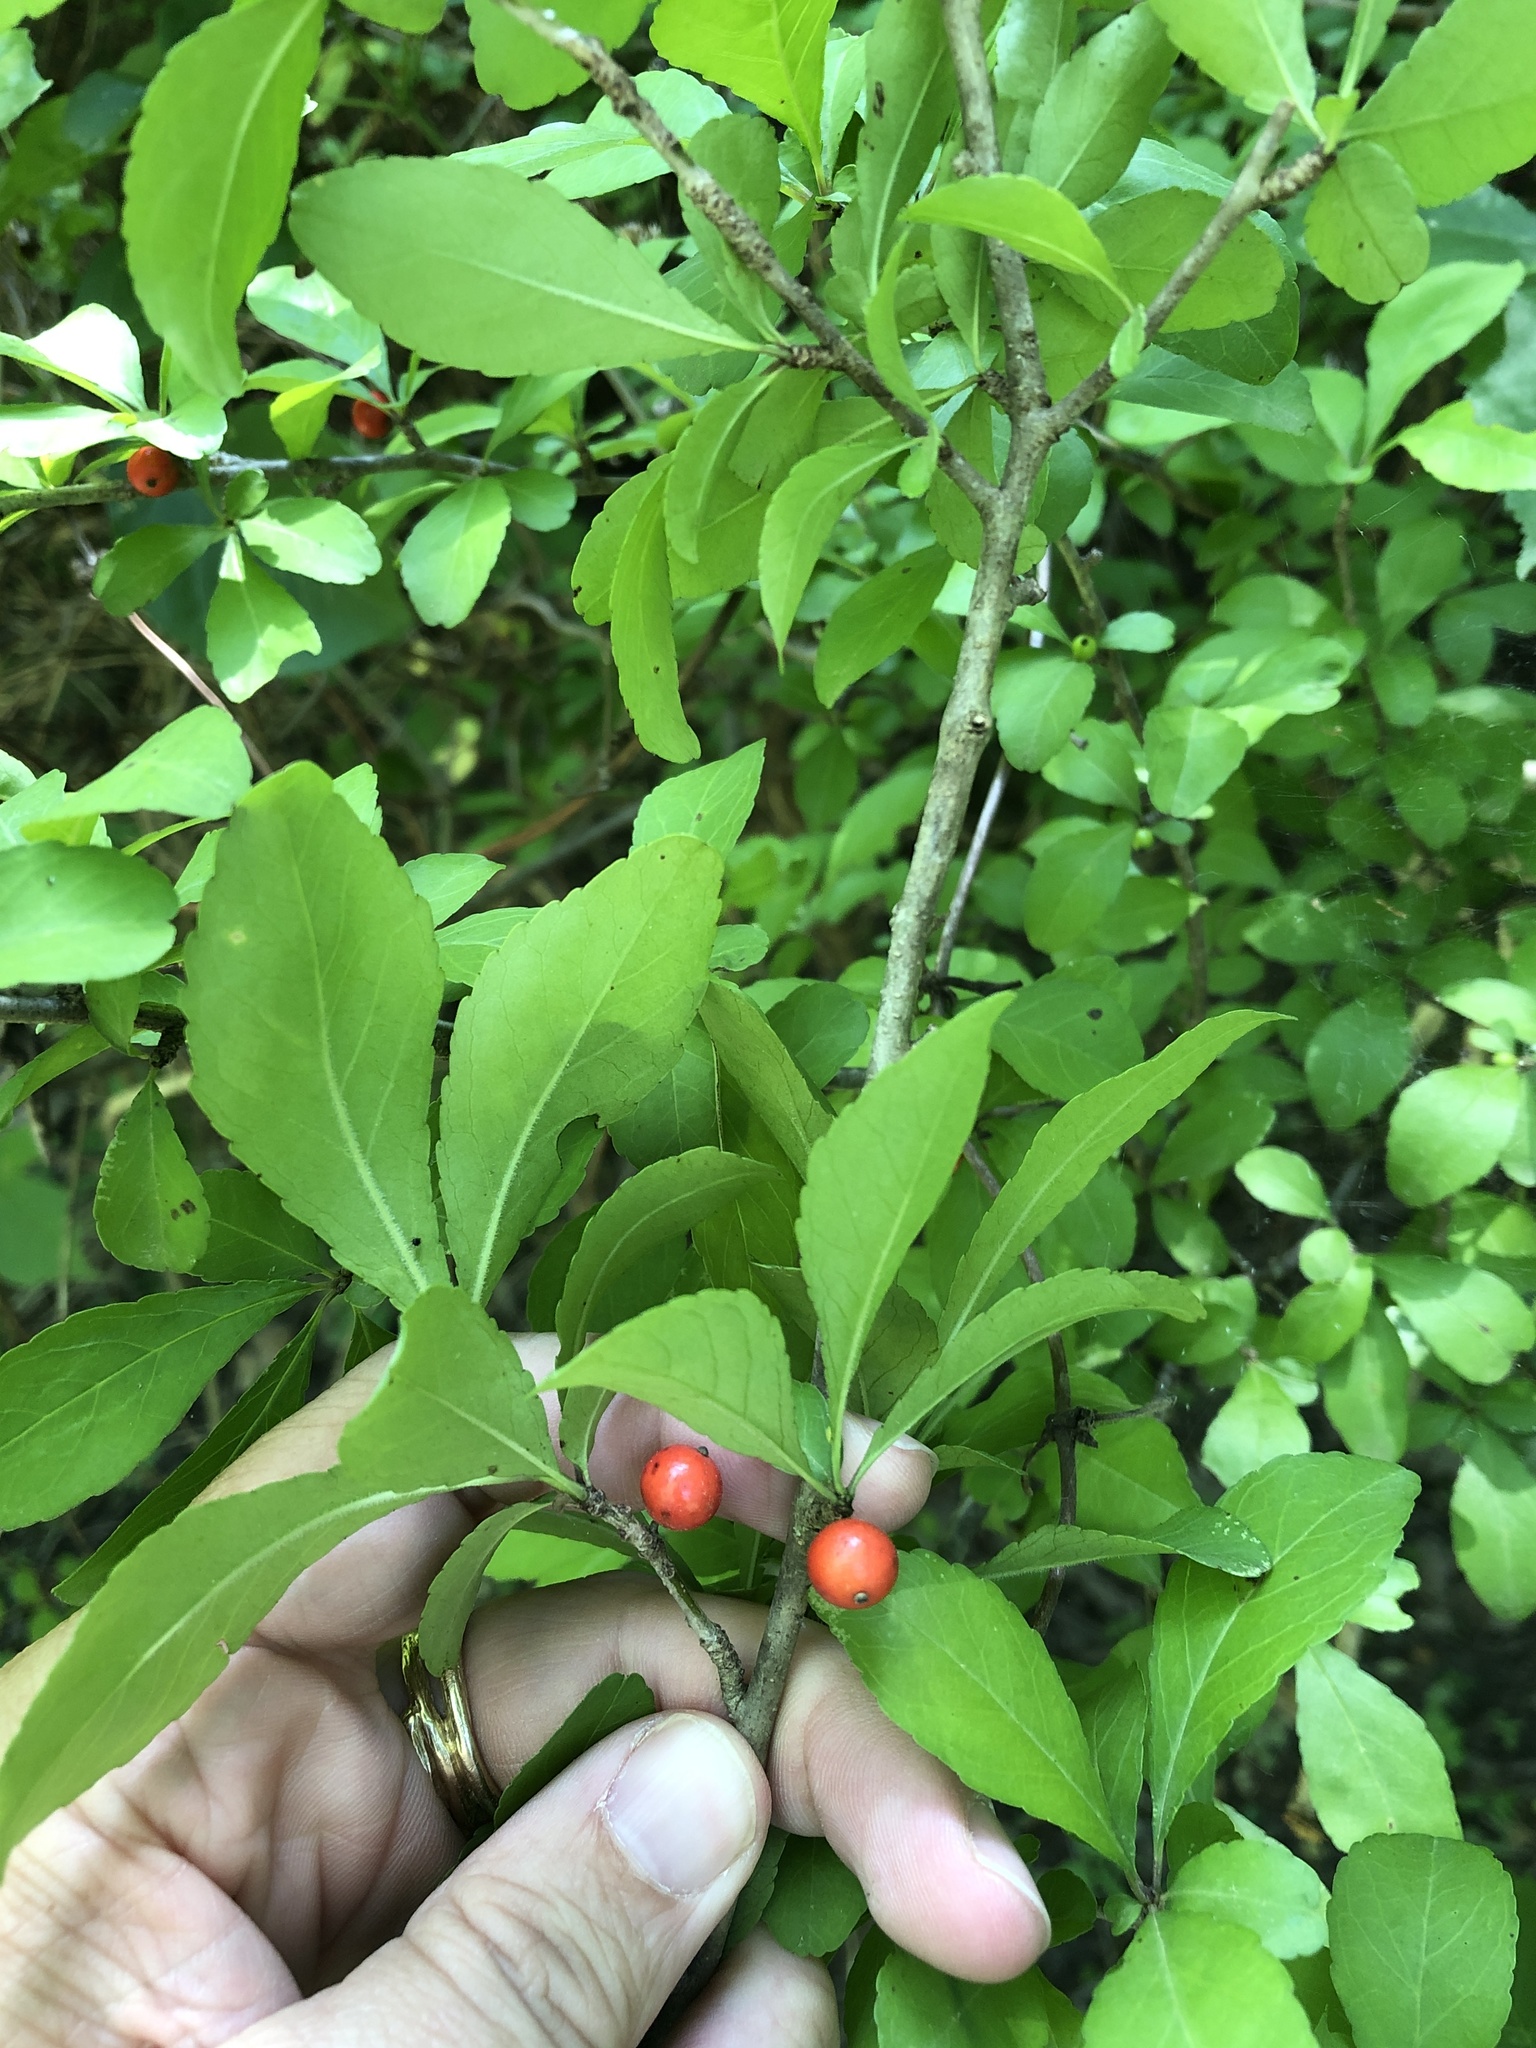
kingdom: Plantae
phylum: Tracheophyta
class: Magnoliopsida
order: Aquifoliales
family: Aquifoliaceae
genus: Ilex
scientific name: Ilex decidua
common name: Possum-haw
